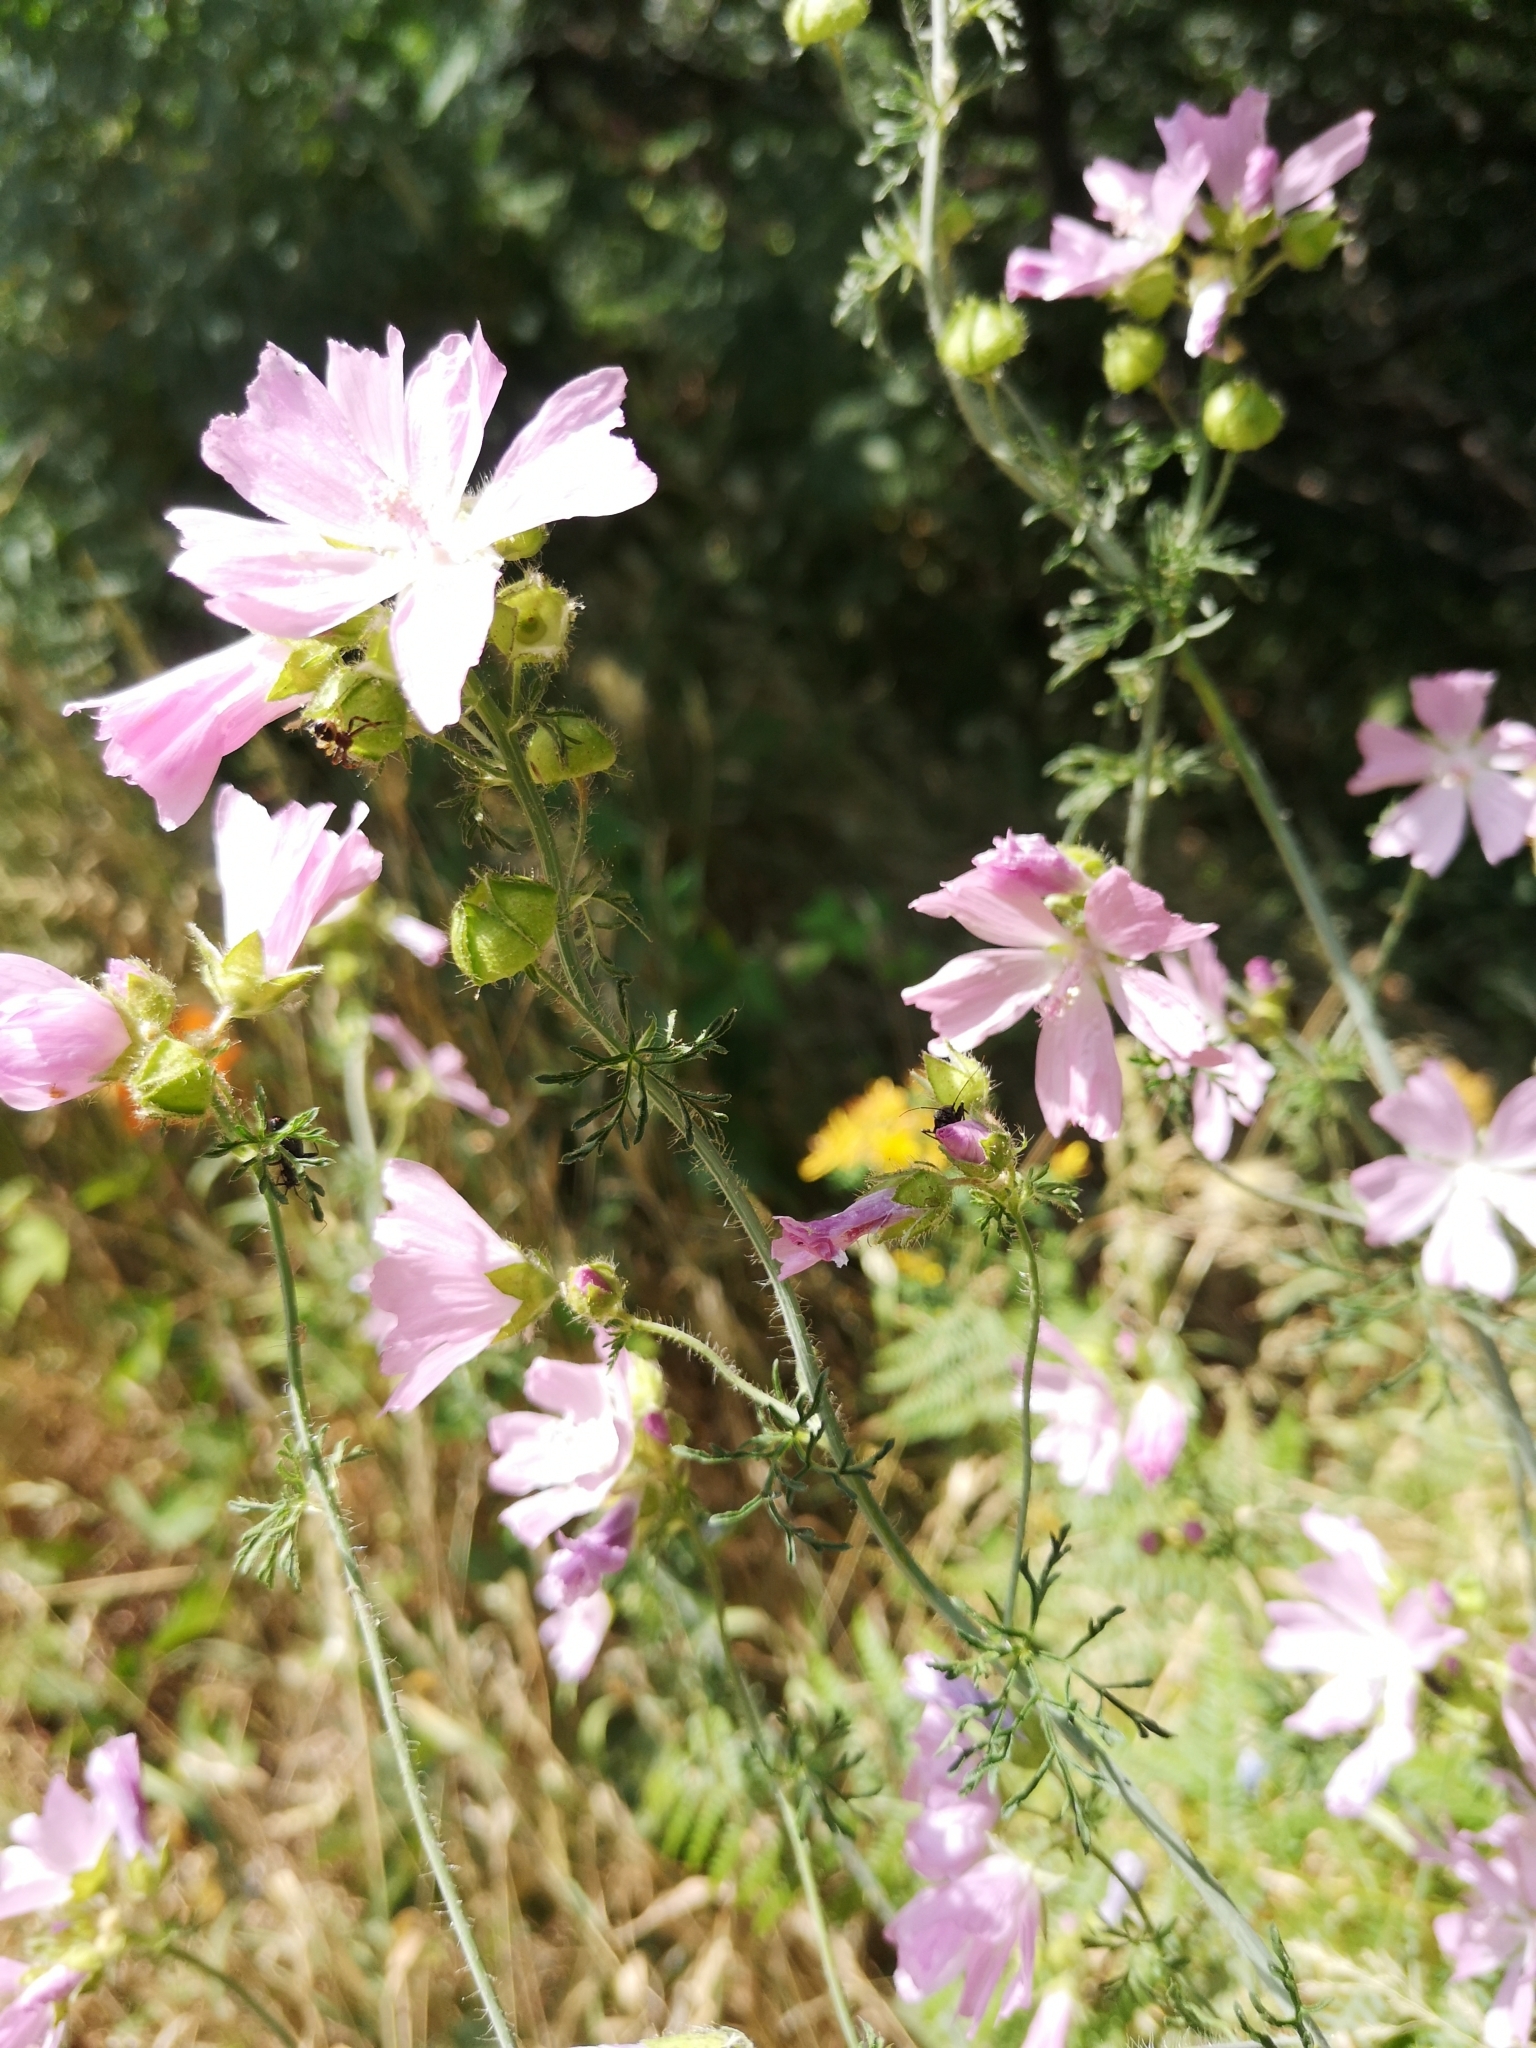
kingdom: Plantae
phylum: Tracheophyta
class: Magnoliopsida
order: Malvales
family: Malvaceae
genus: Malva
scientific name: Malva moschata
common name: Musk mallow
